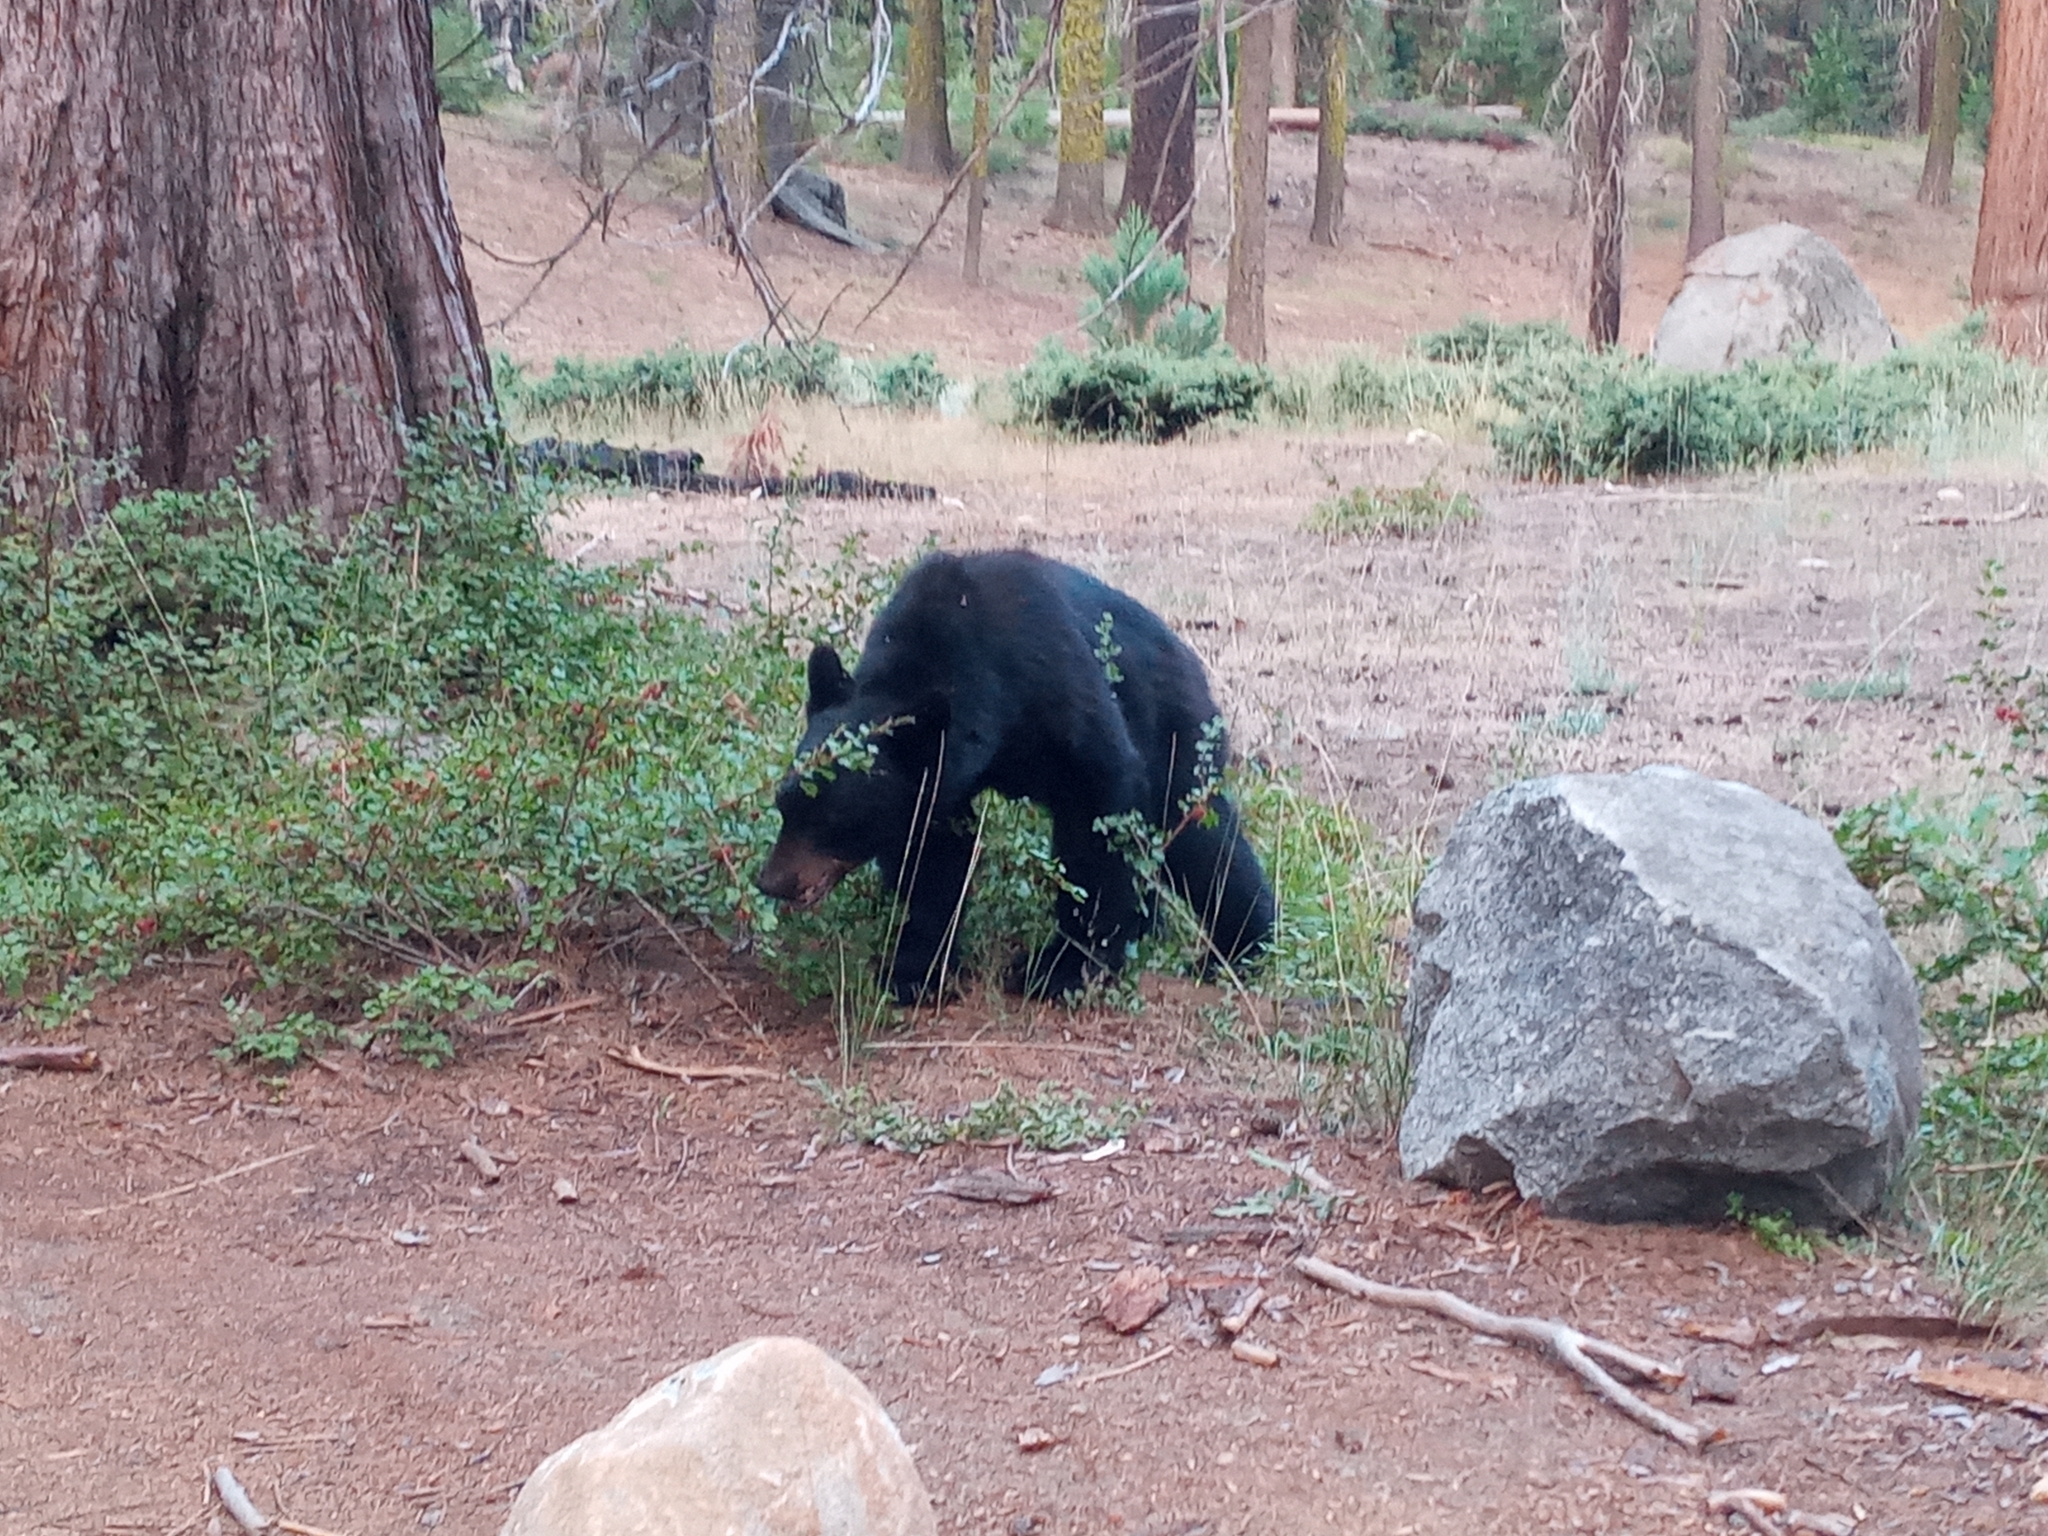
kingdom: Animalia
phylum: Chordata
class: Mammalia
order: Carnivora
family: Ursidae
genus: Ursus
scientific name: Ursus americanus
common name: American black bear
